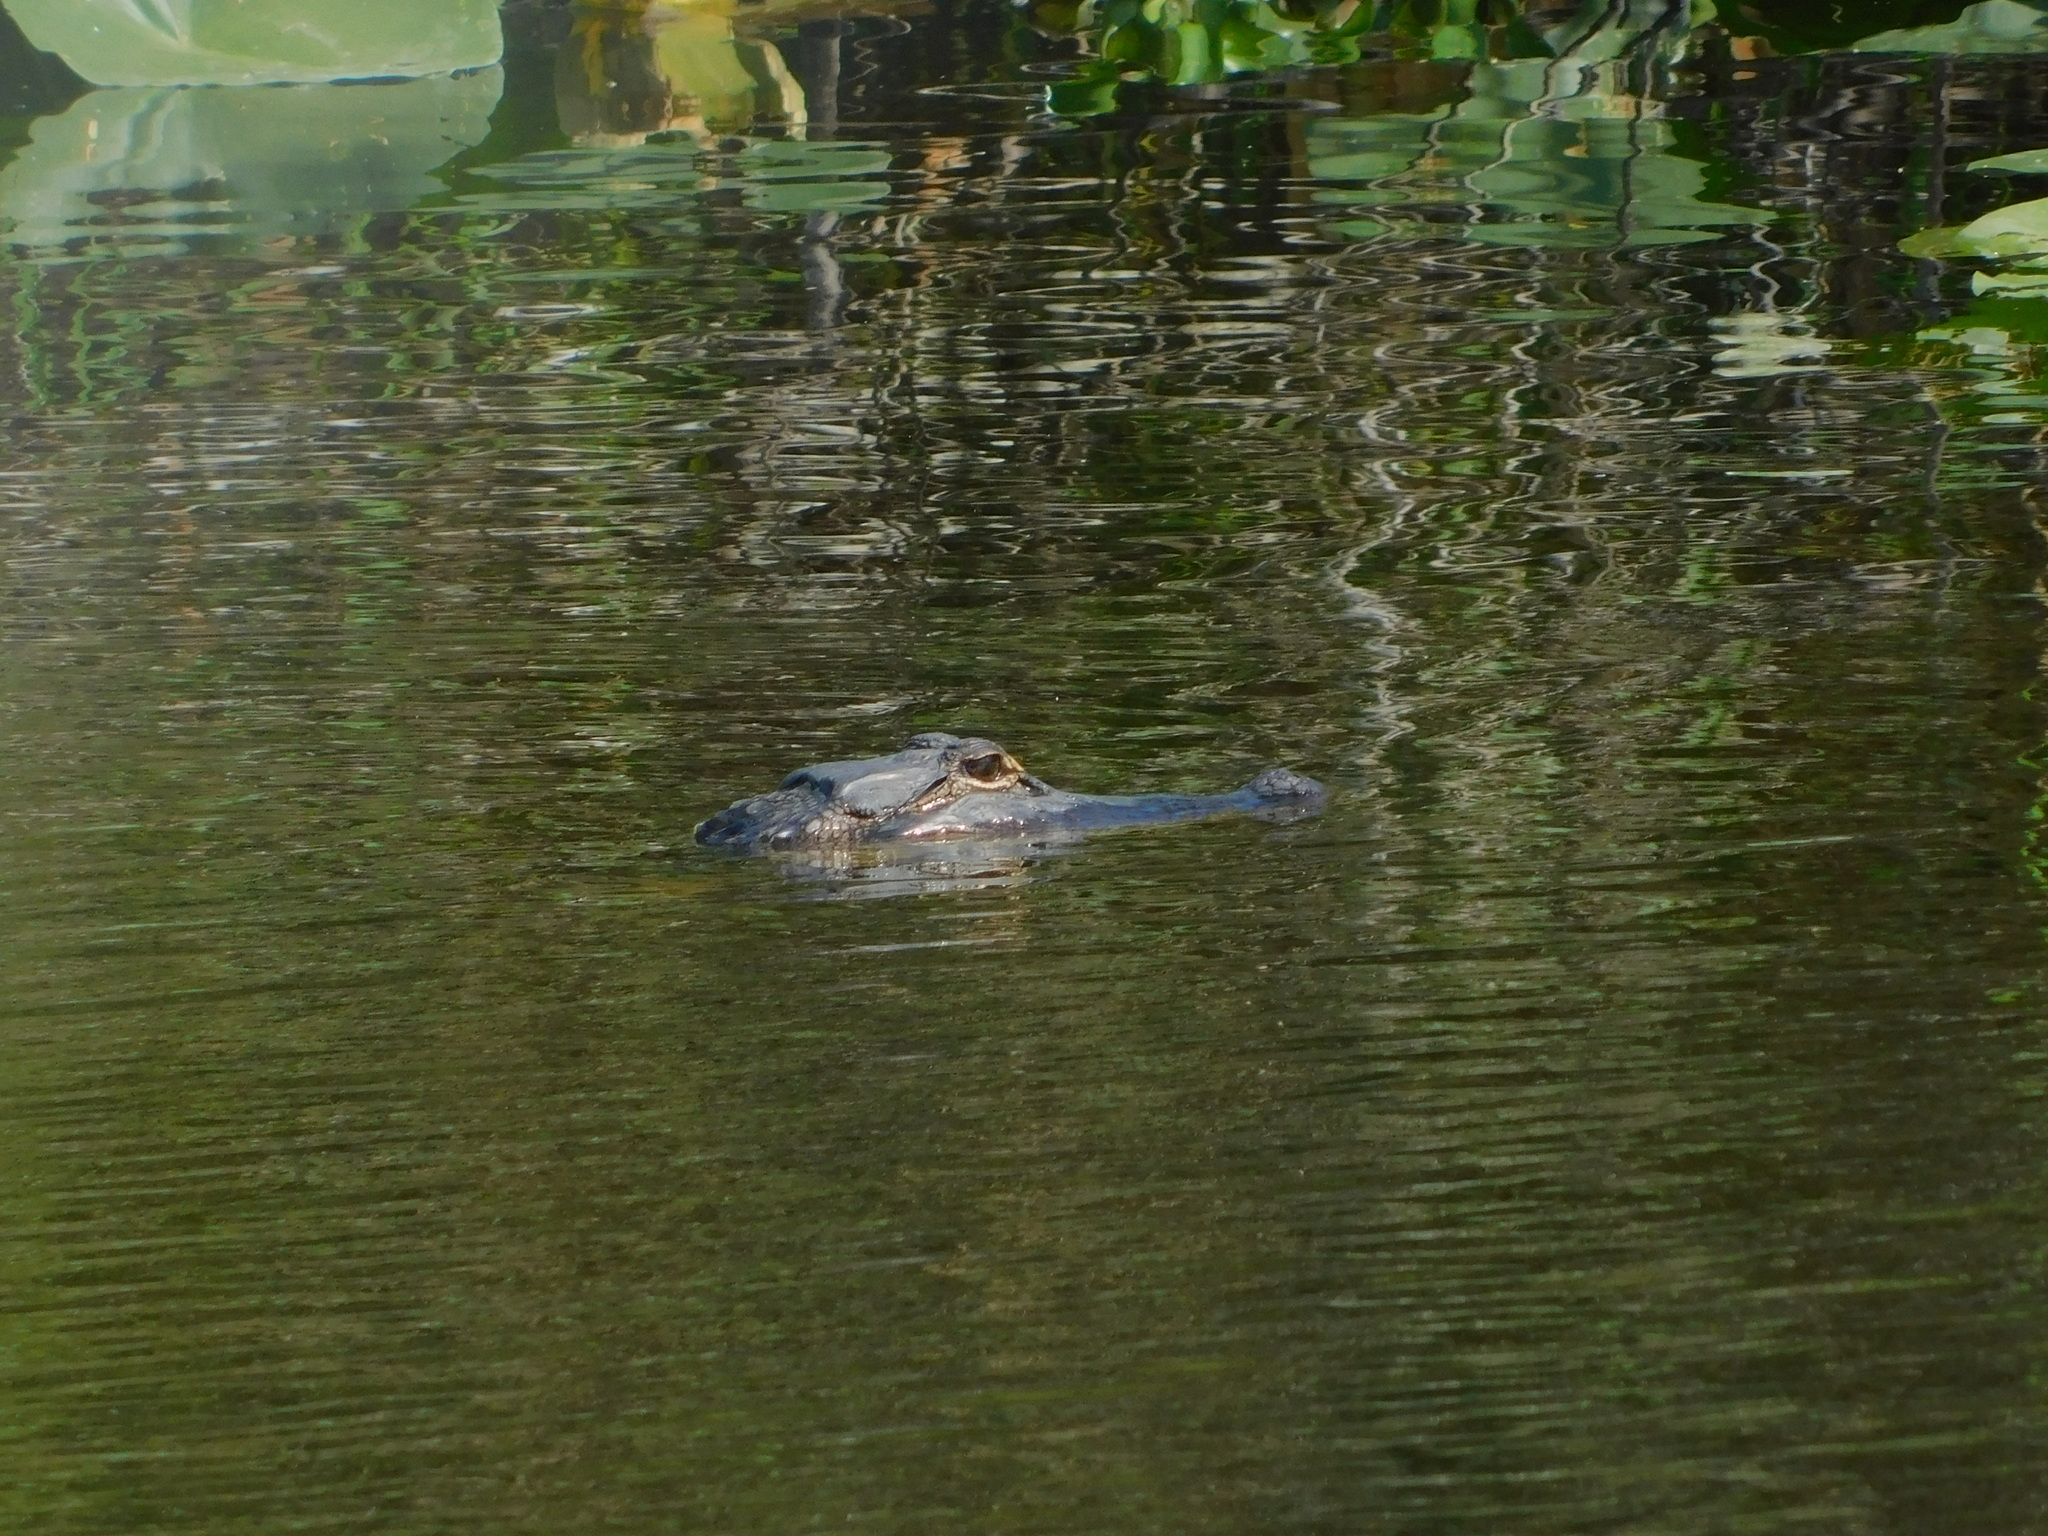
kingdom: Animalia
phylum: Chordata
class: Crocodylia
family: Alligatoridae
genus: Alligator
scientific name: Alligator mississippiensis
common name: American alligator
